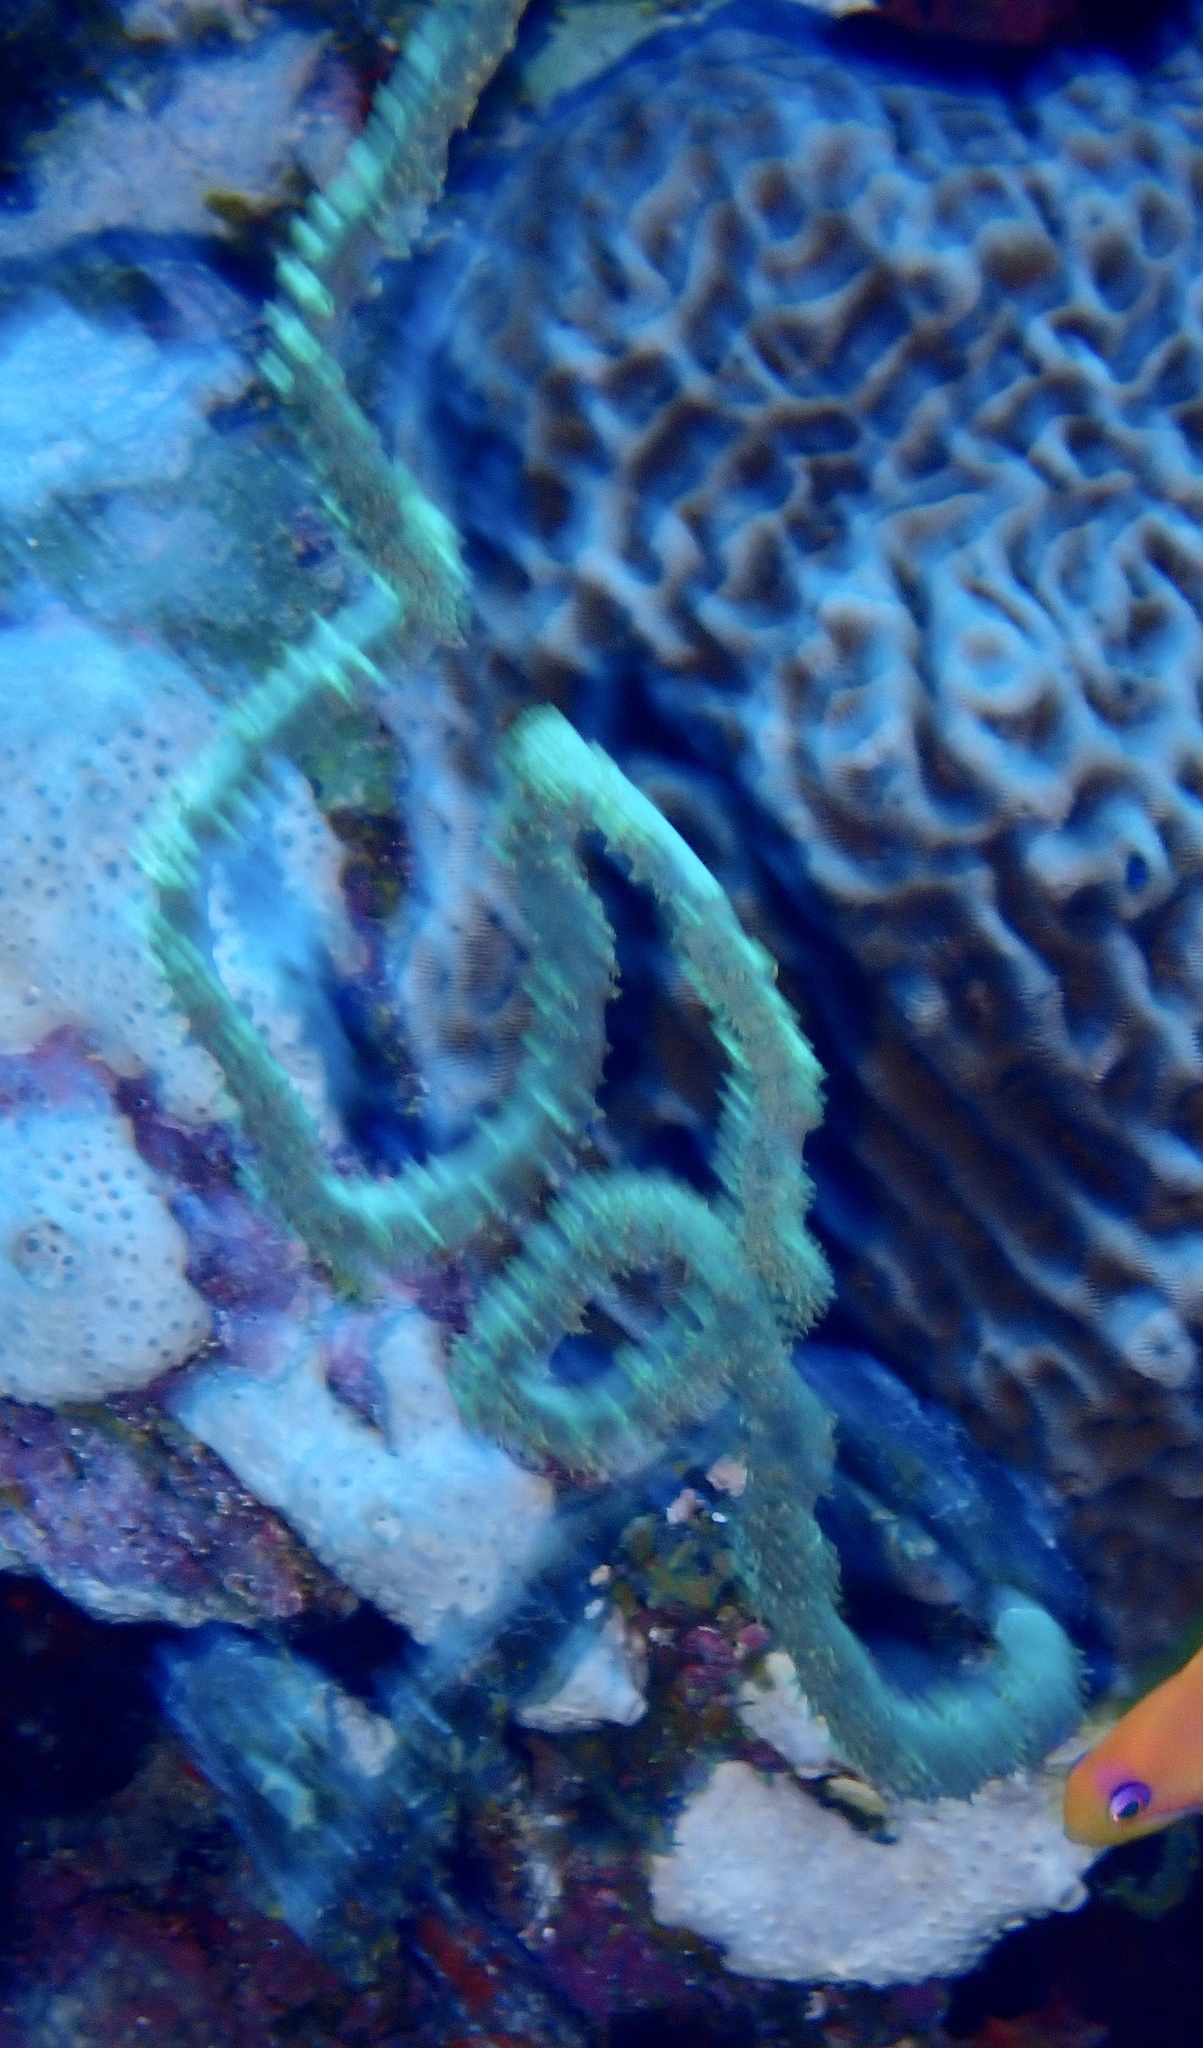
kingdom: Animalia
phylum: Cnidaria
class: Anthozoa
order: Antipatharia
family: Antipathidae
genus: Cirrhipathes
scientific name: Cirrhipathes
